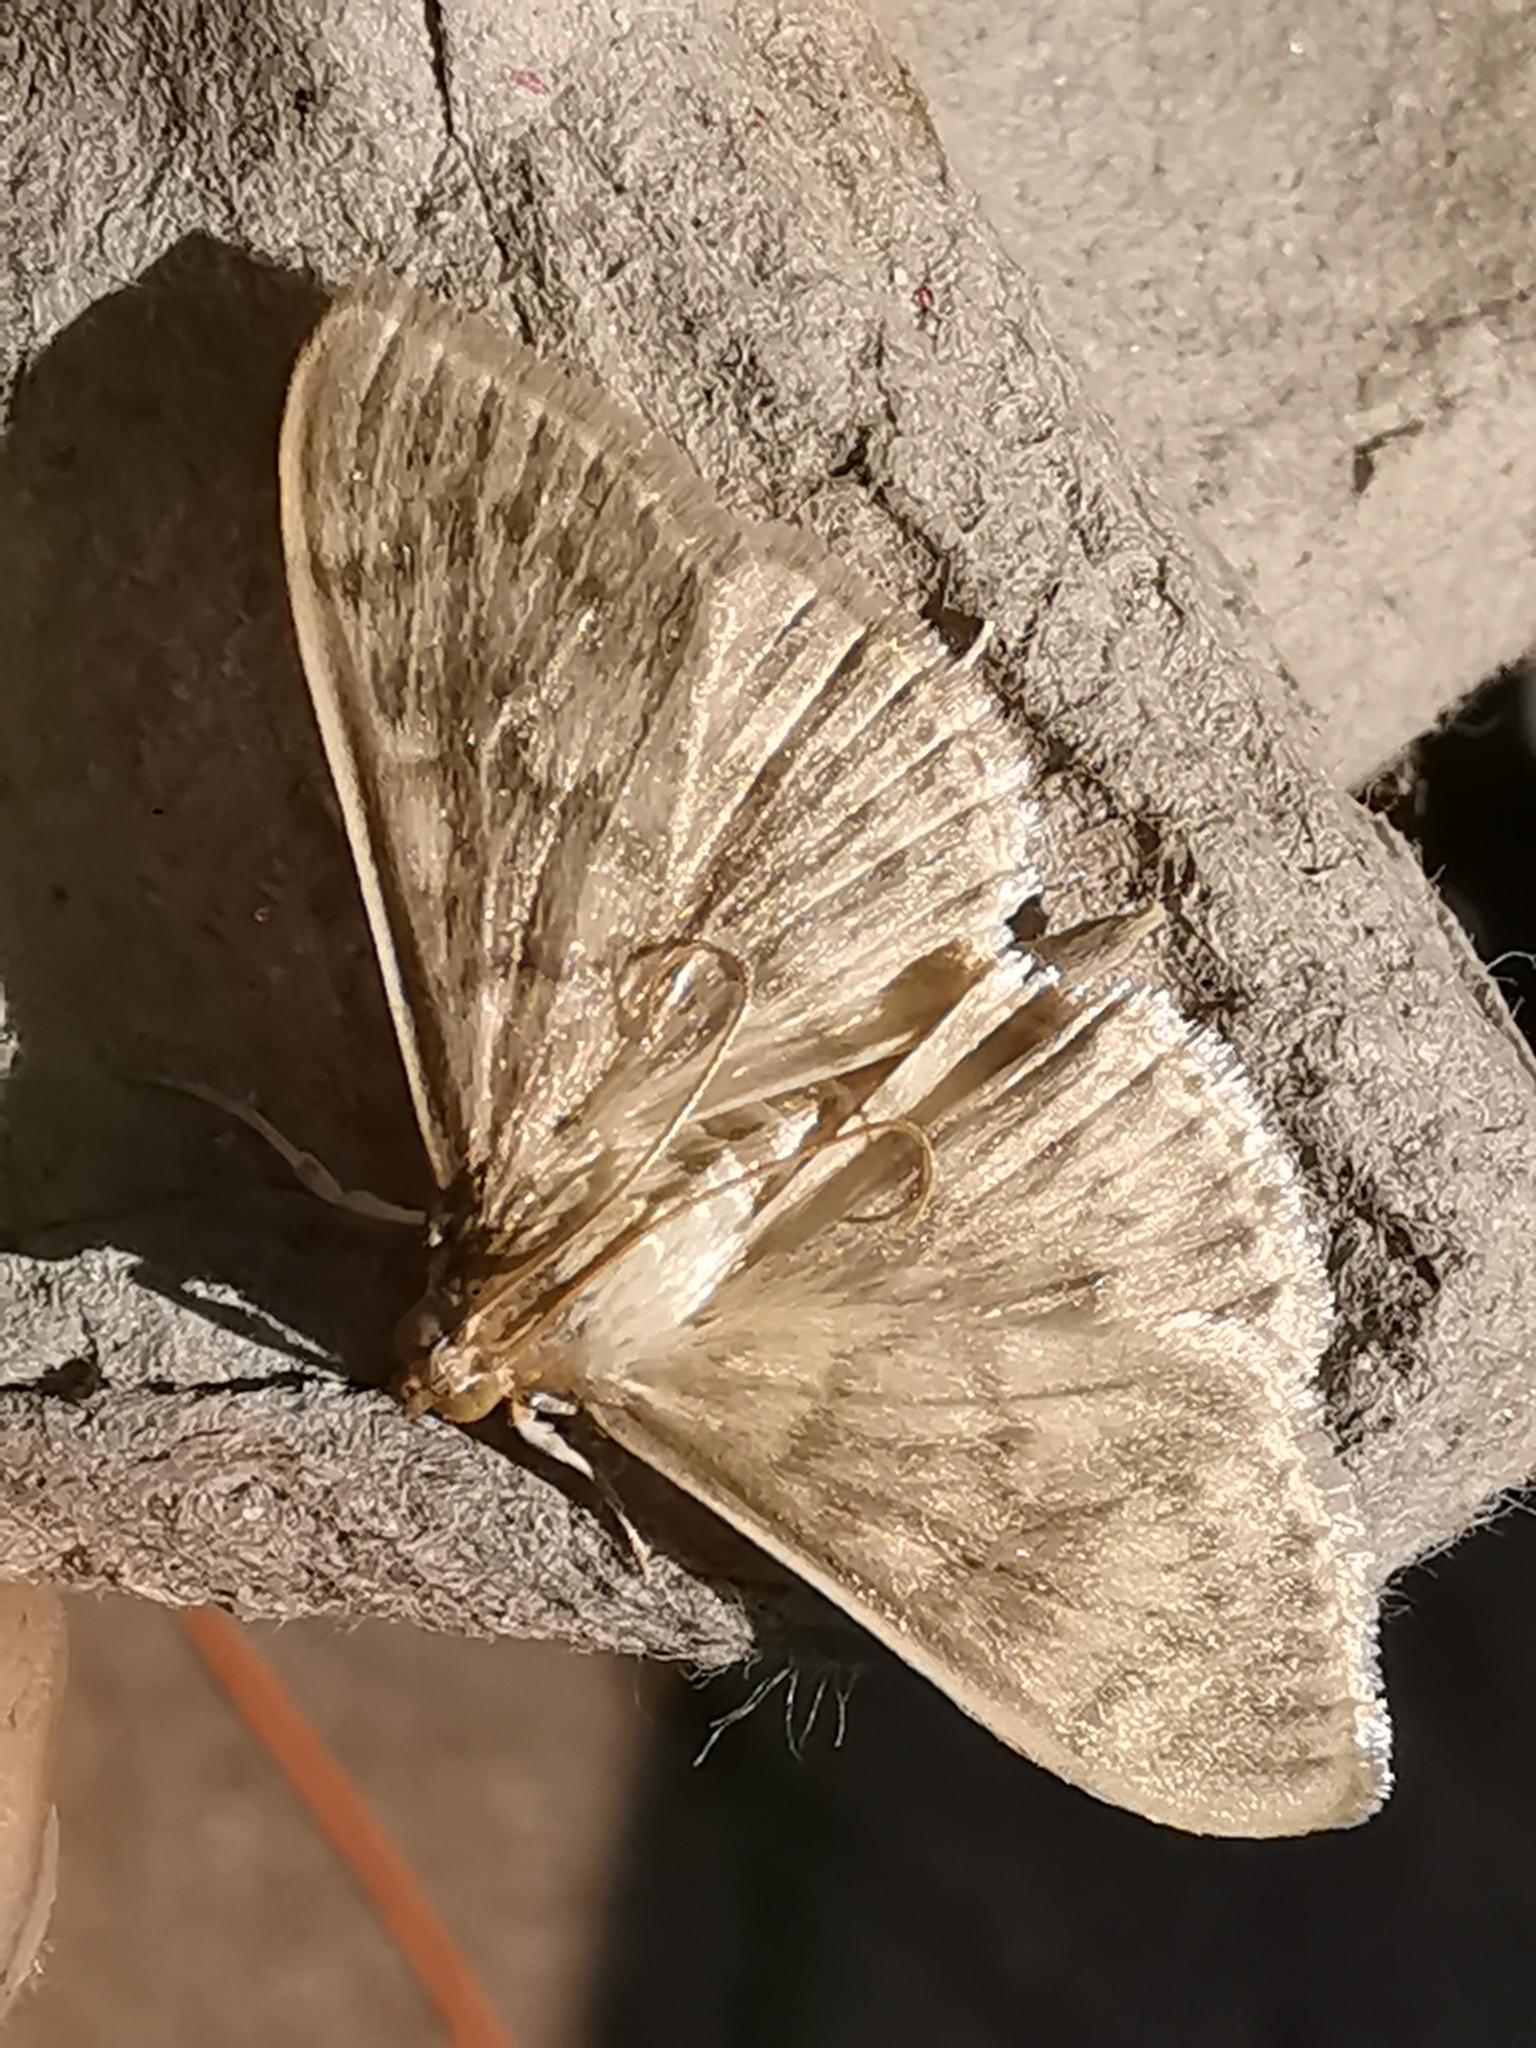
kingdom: Animalia
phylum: Arthropoda
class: Insecta
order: Lepidoptera
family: Crambidae
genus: Patania
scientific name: Patania ruralis
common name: Mother of pearl
